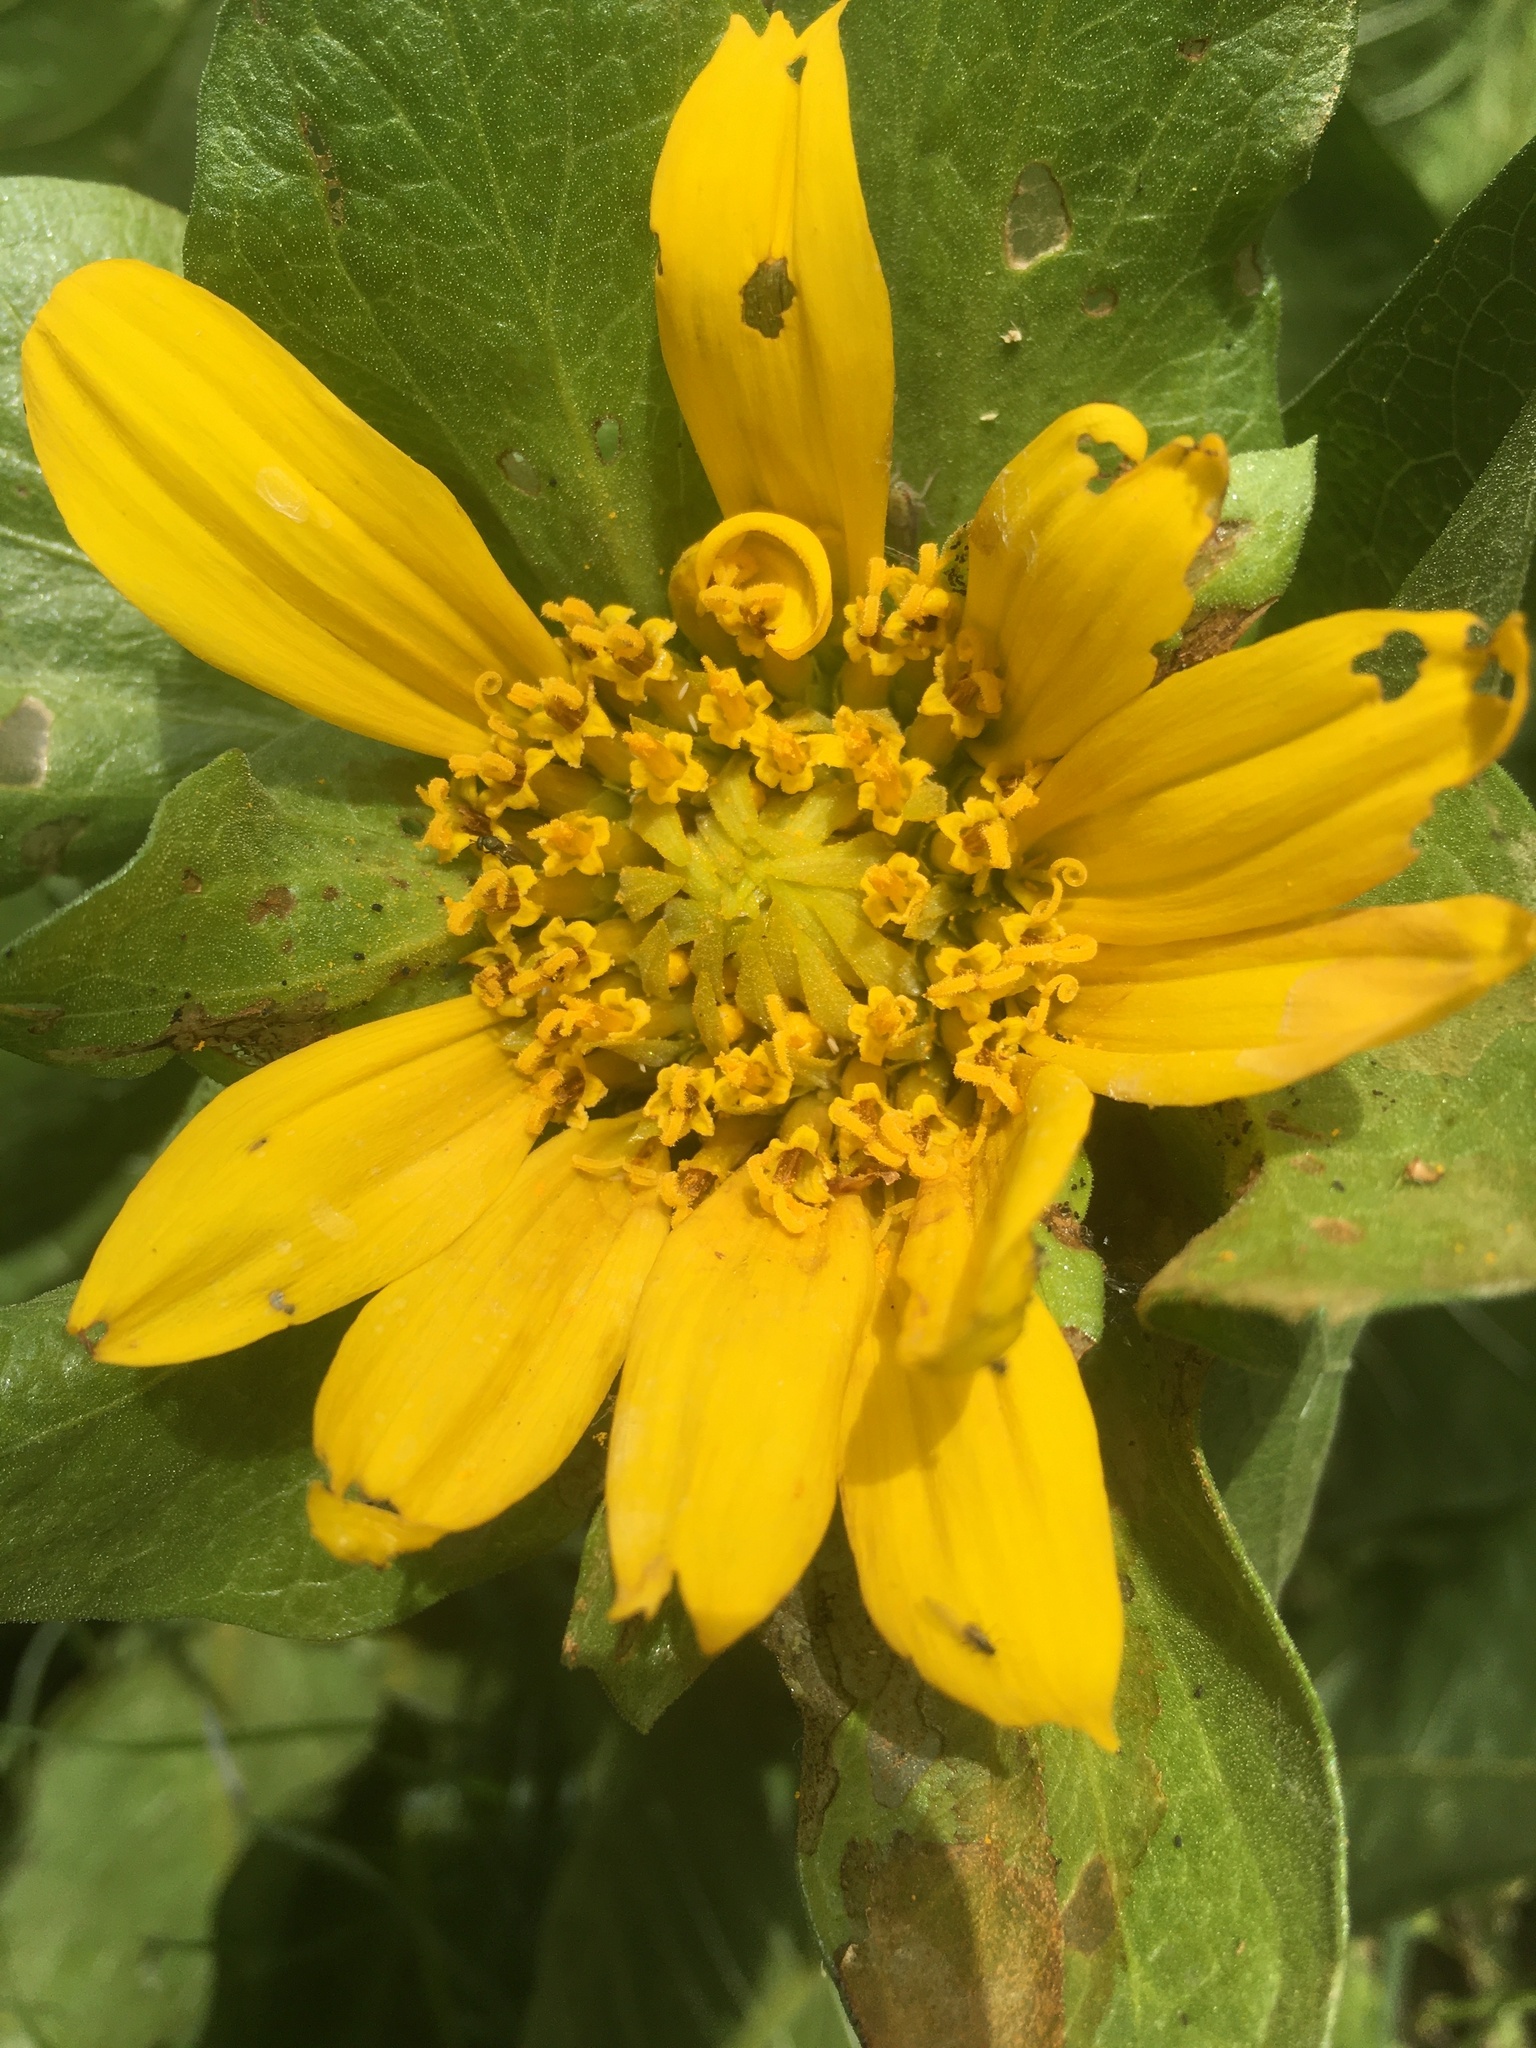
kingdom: Plantae
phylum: Tracheophyta
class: Magnoliopsida
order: Asterales
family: Asteraceae
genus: Wyethia
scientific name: Wyethia glabra
